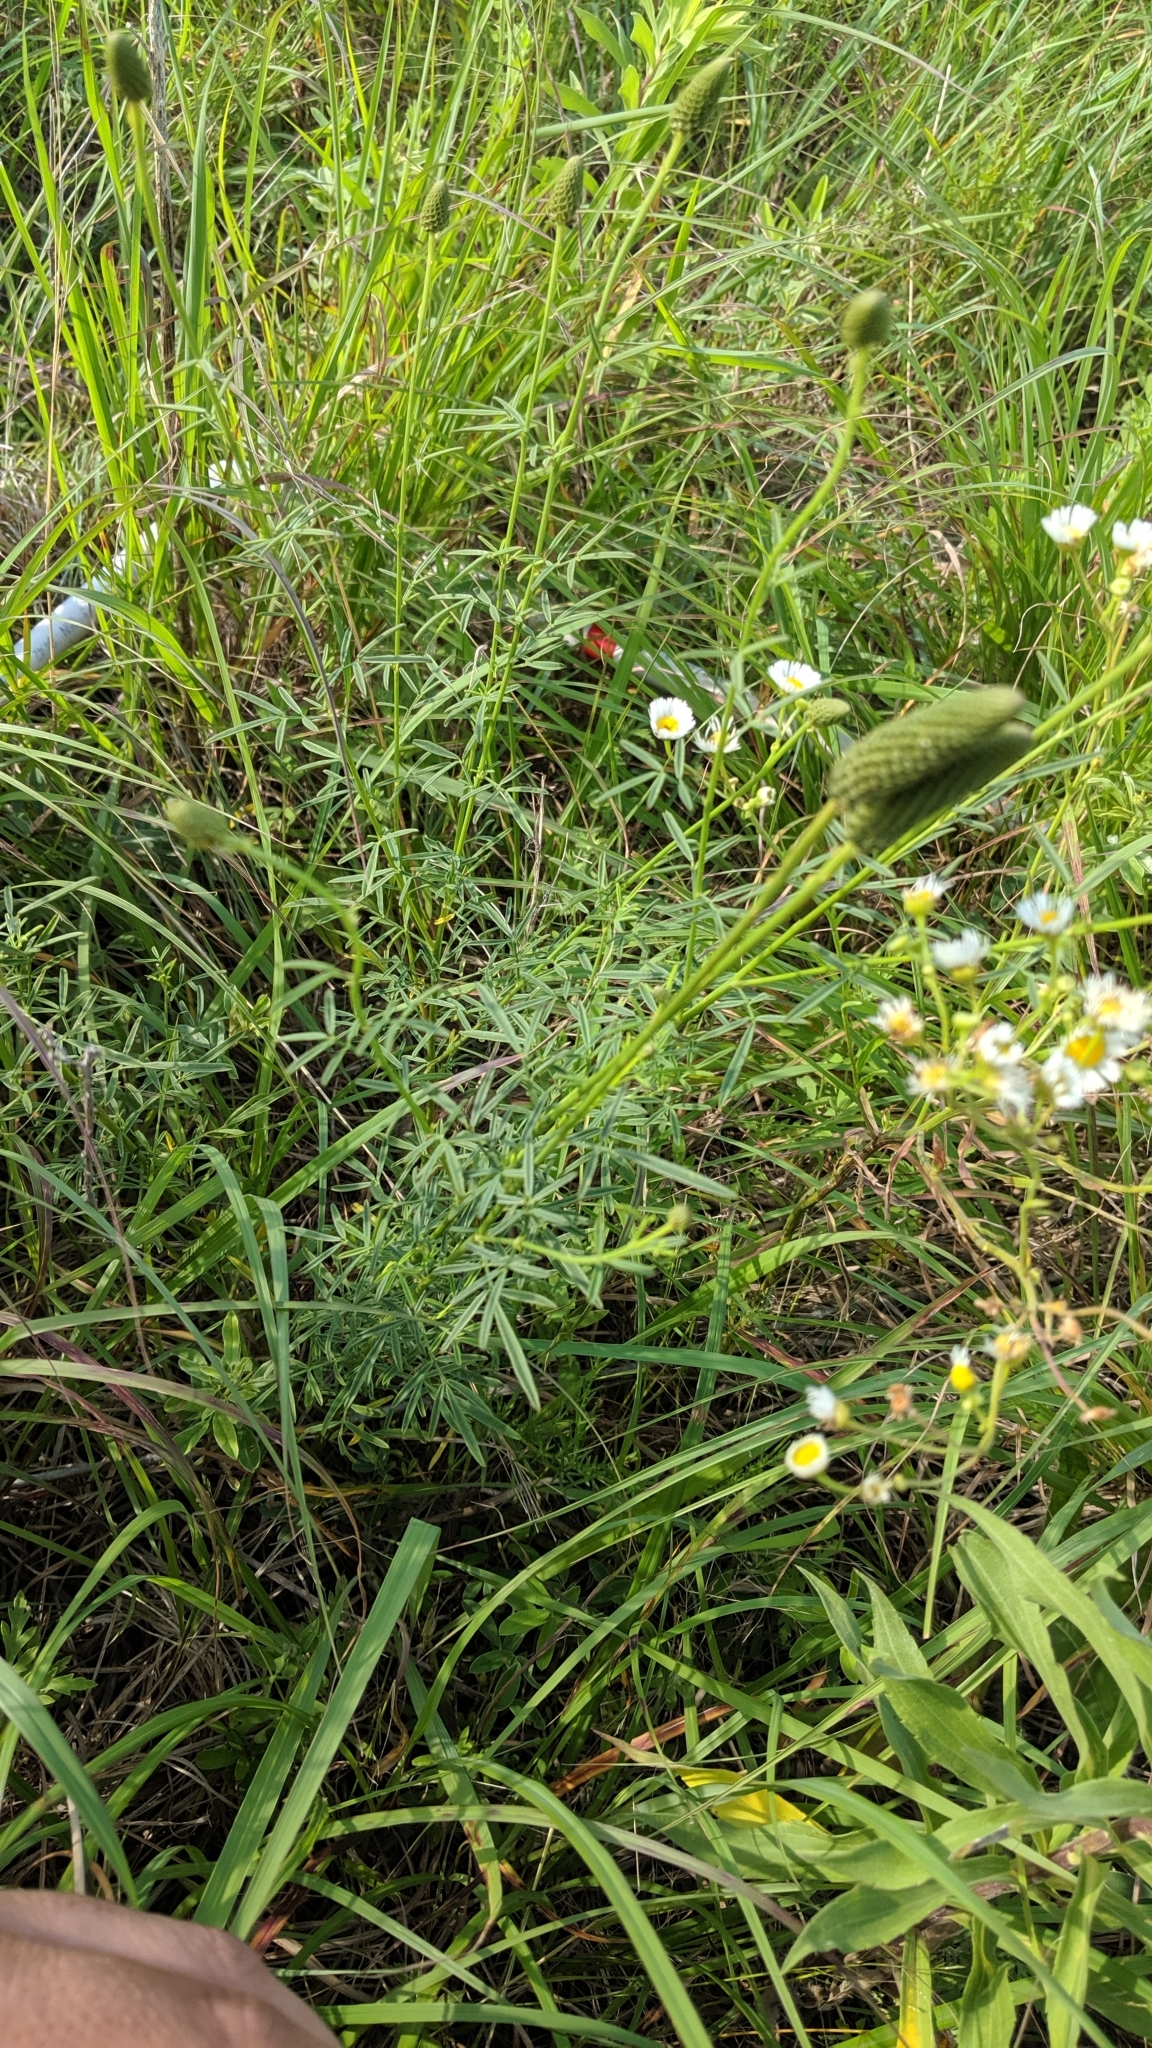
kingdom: Plantae
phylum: Tracheophyta
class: Magnoliopsida
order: Fabales
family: Fabaceae
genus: Dalea
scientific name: Dalea candida
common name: White prairie-clover
